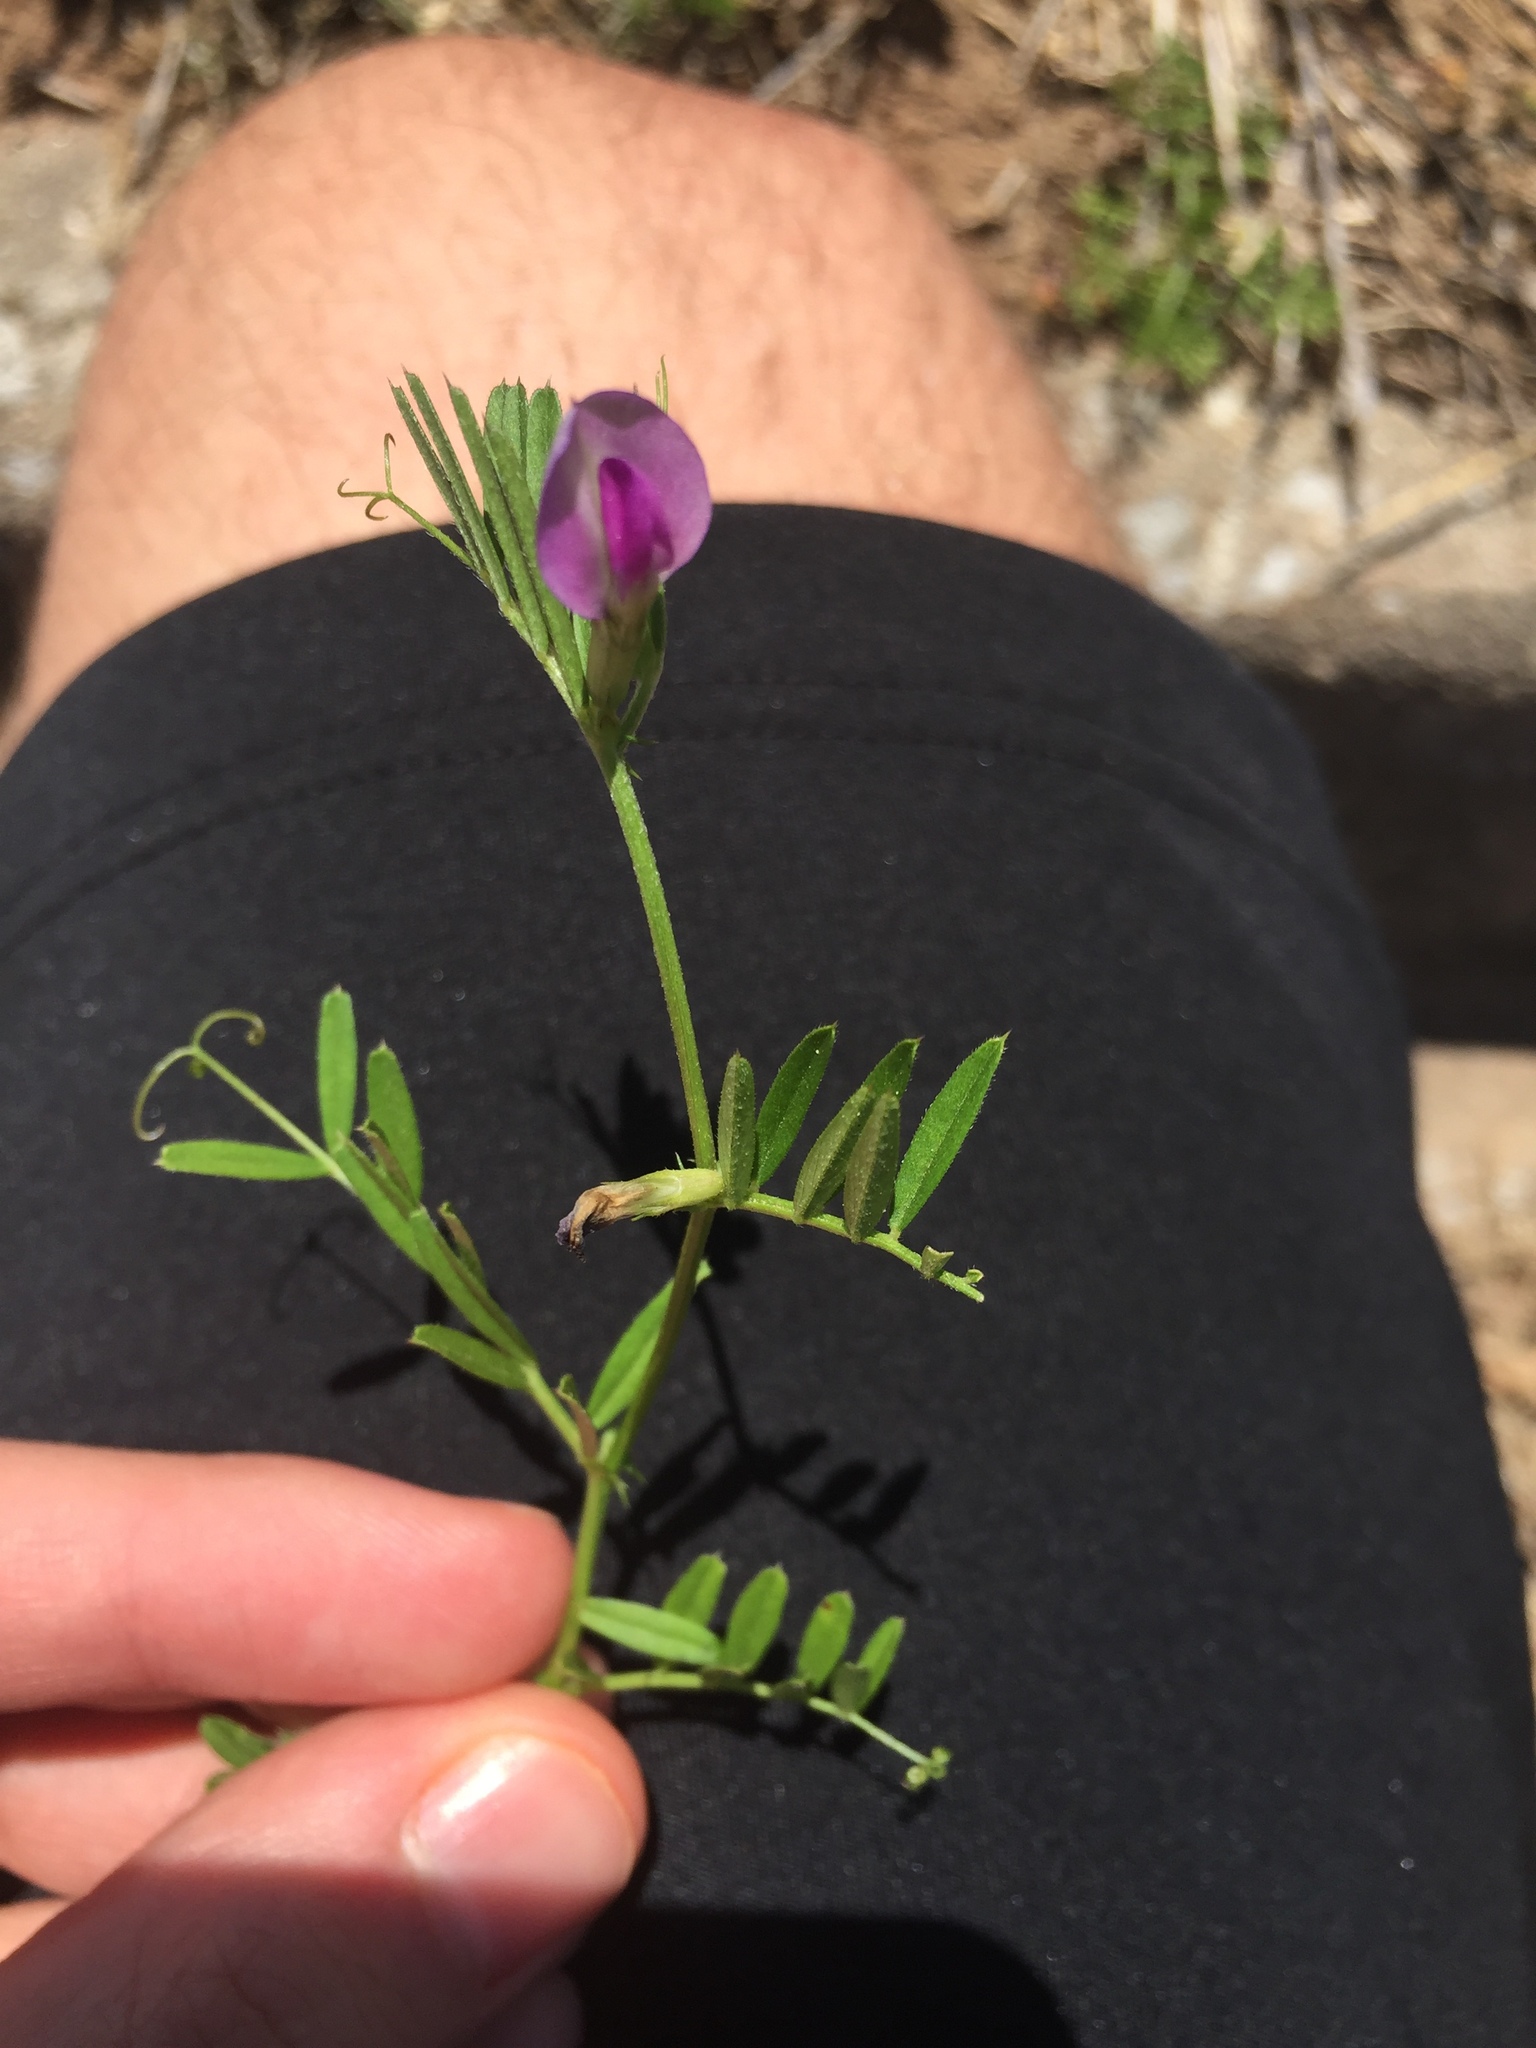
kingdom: Plantae
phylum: Tracheophyta
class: Magnoliopsida
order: Fabales
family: Fabaceae
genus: Vicia
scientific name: Vicia sativa
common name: Garden vetch
